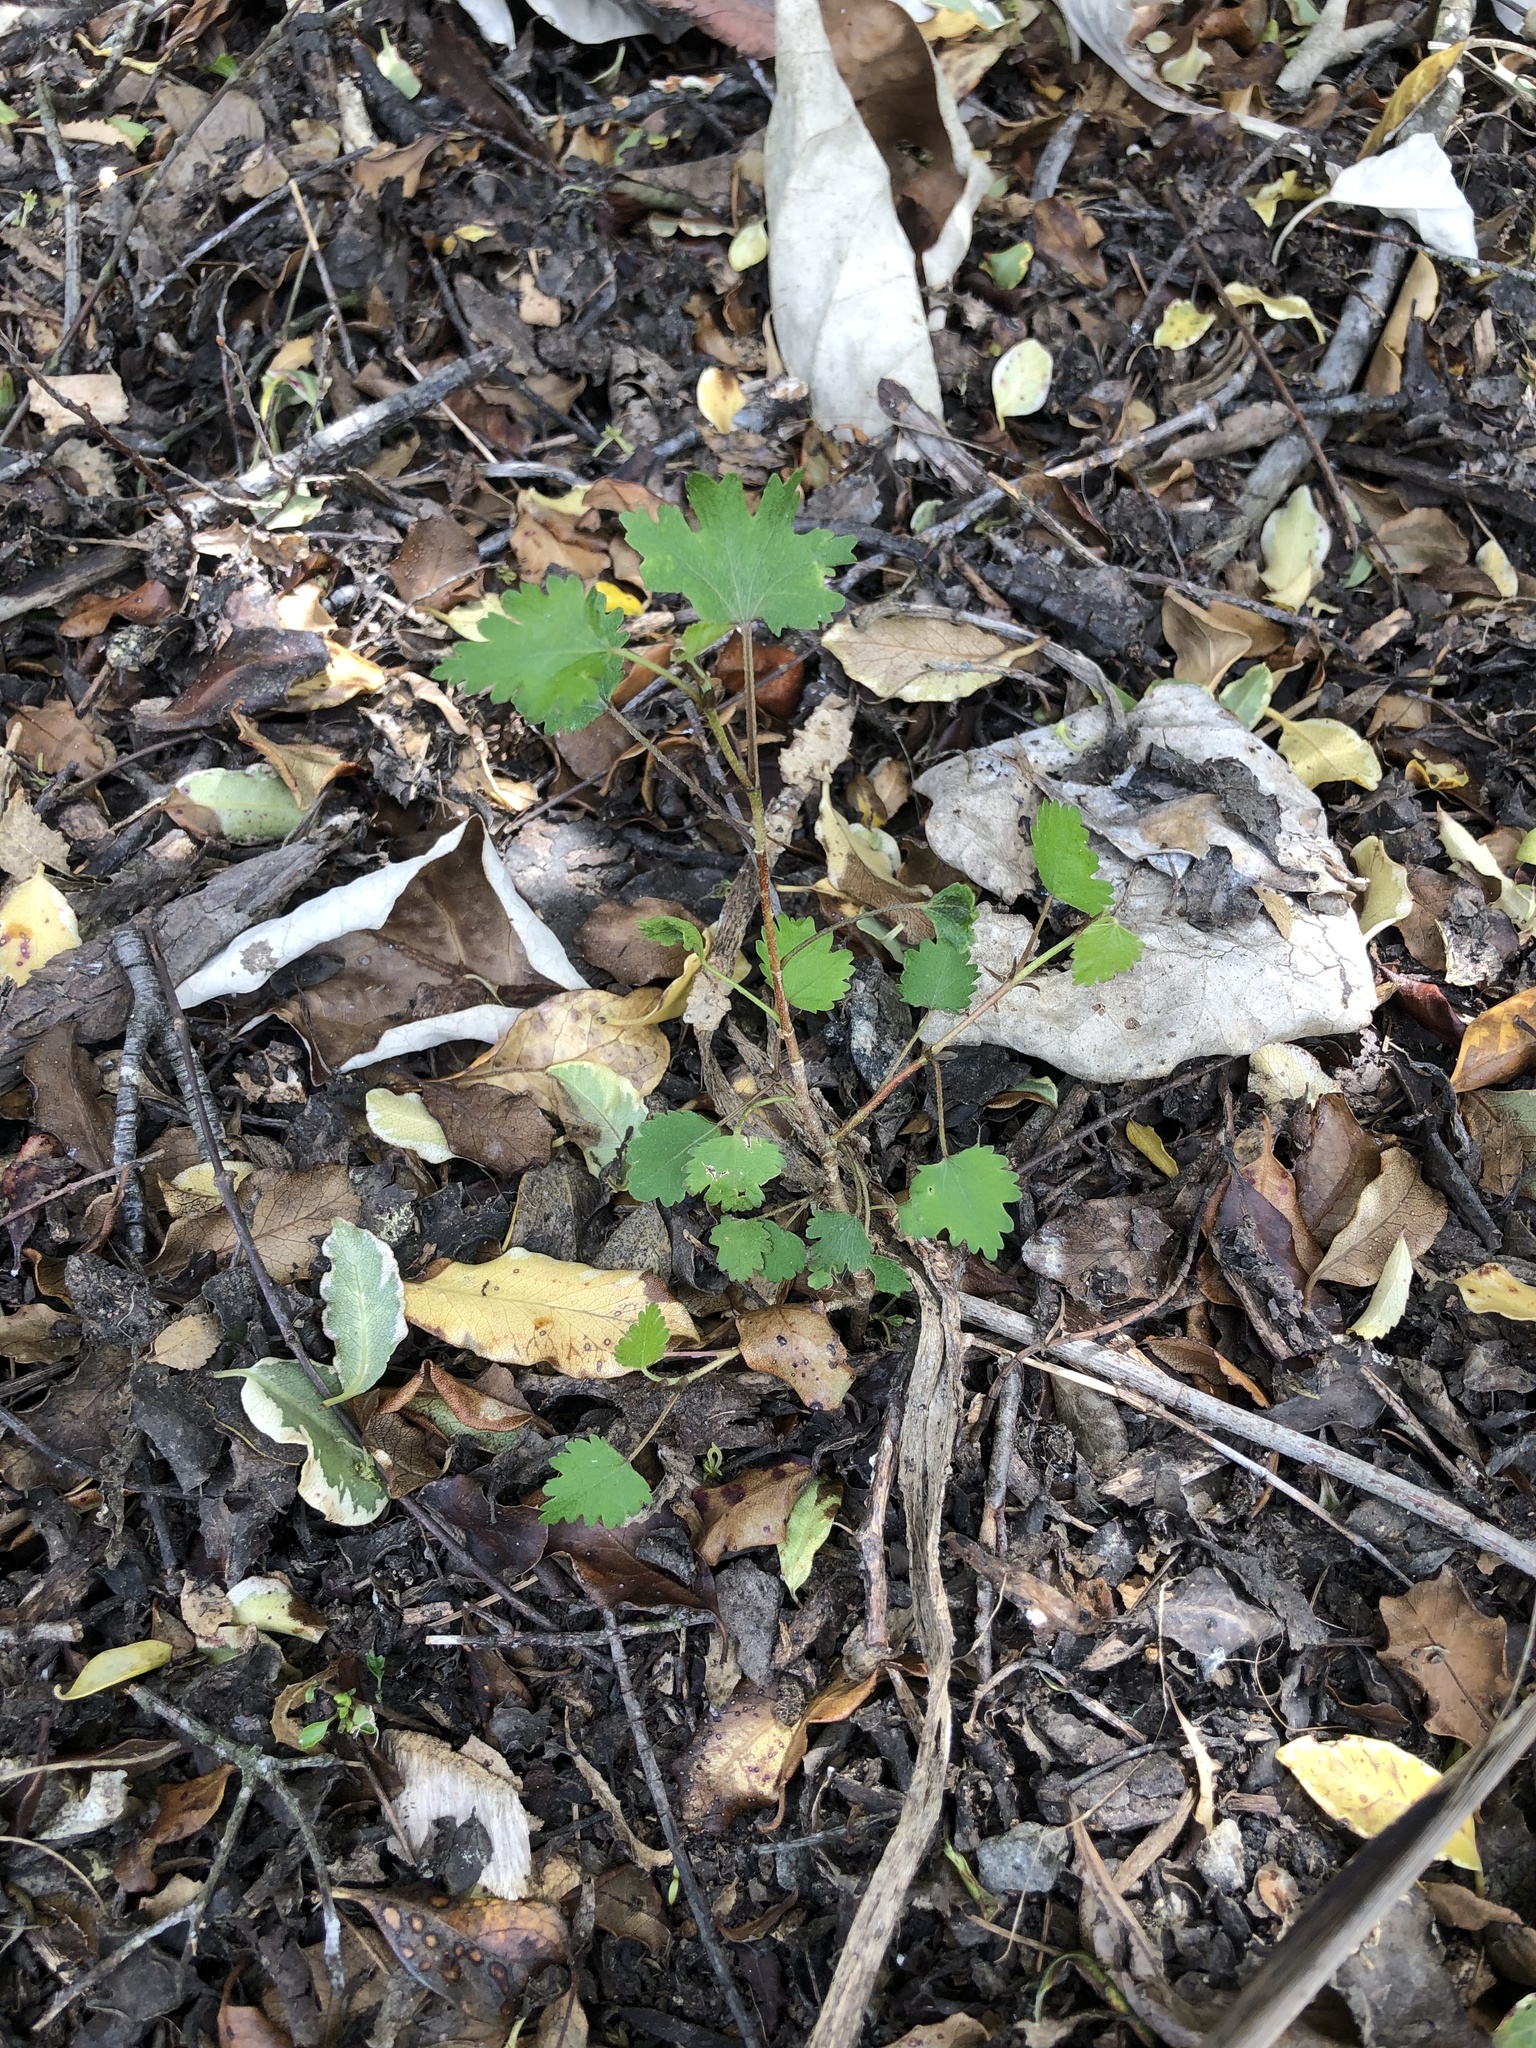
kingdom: Plantae
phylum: Tracheophyta
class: Magnoliopsida
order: Malvales
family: Malvaceae
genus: Plagianthus
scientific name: Plagianthus regius
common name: Manatu
